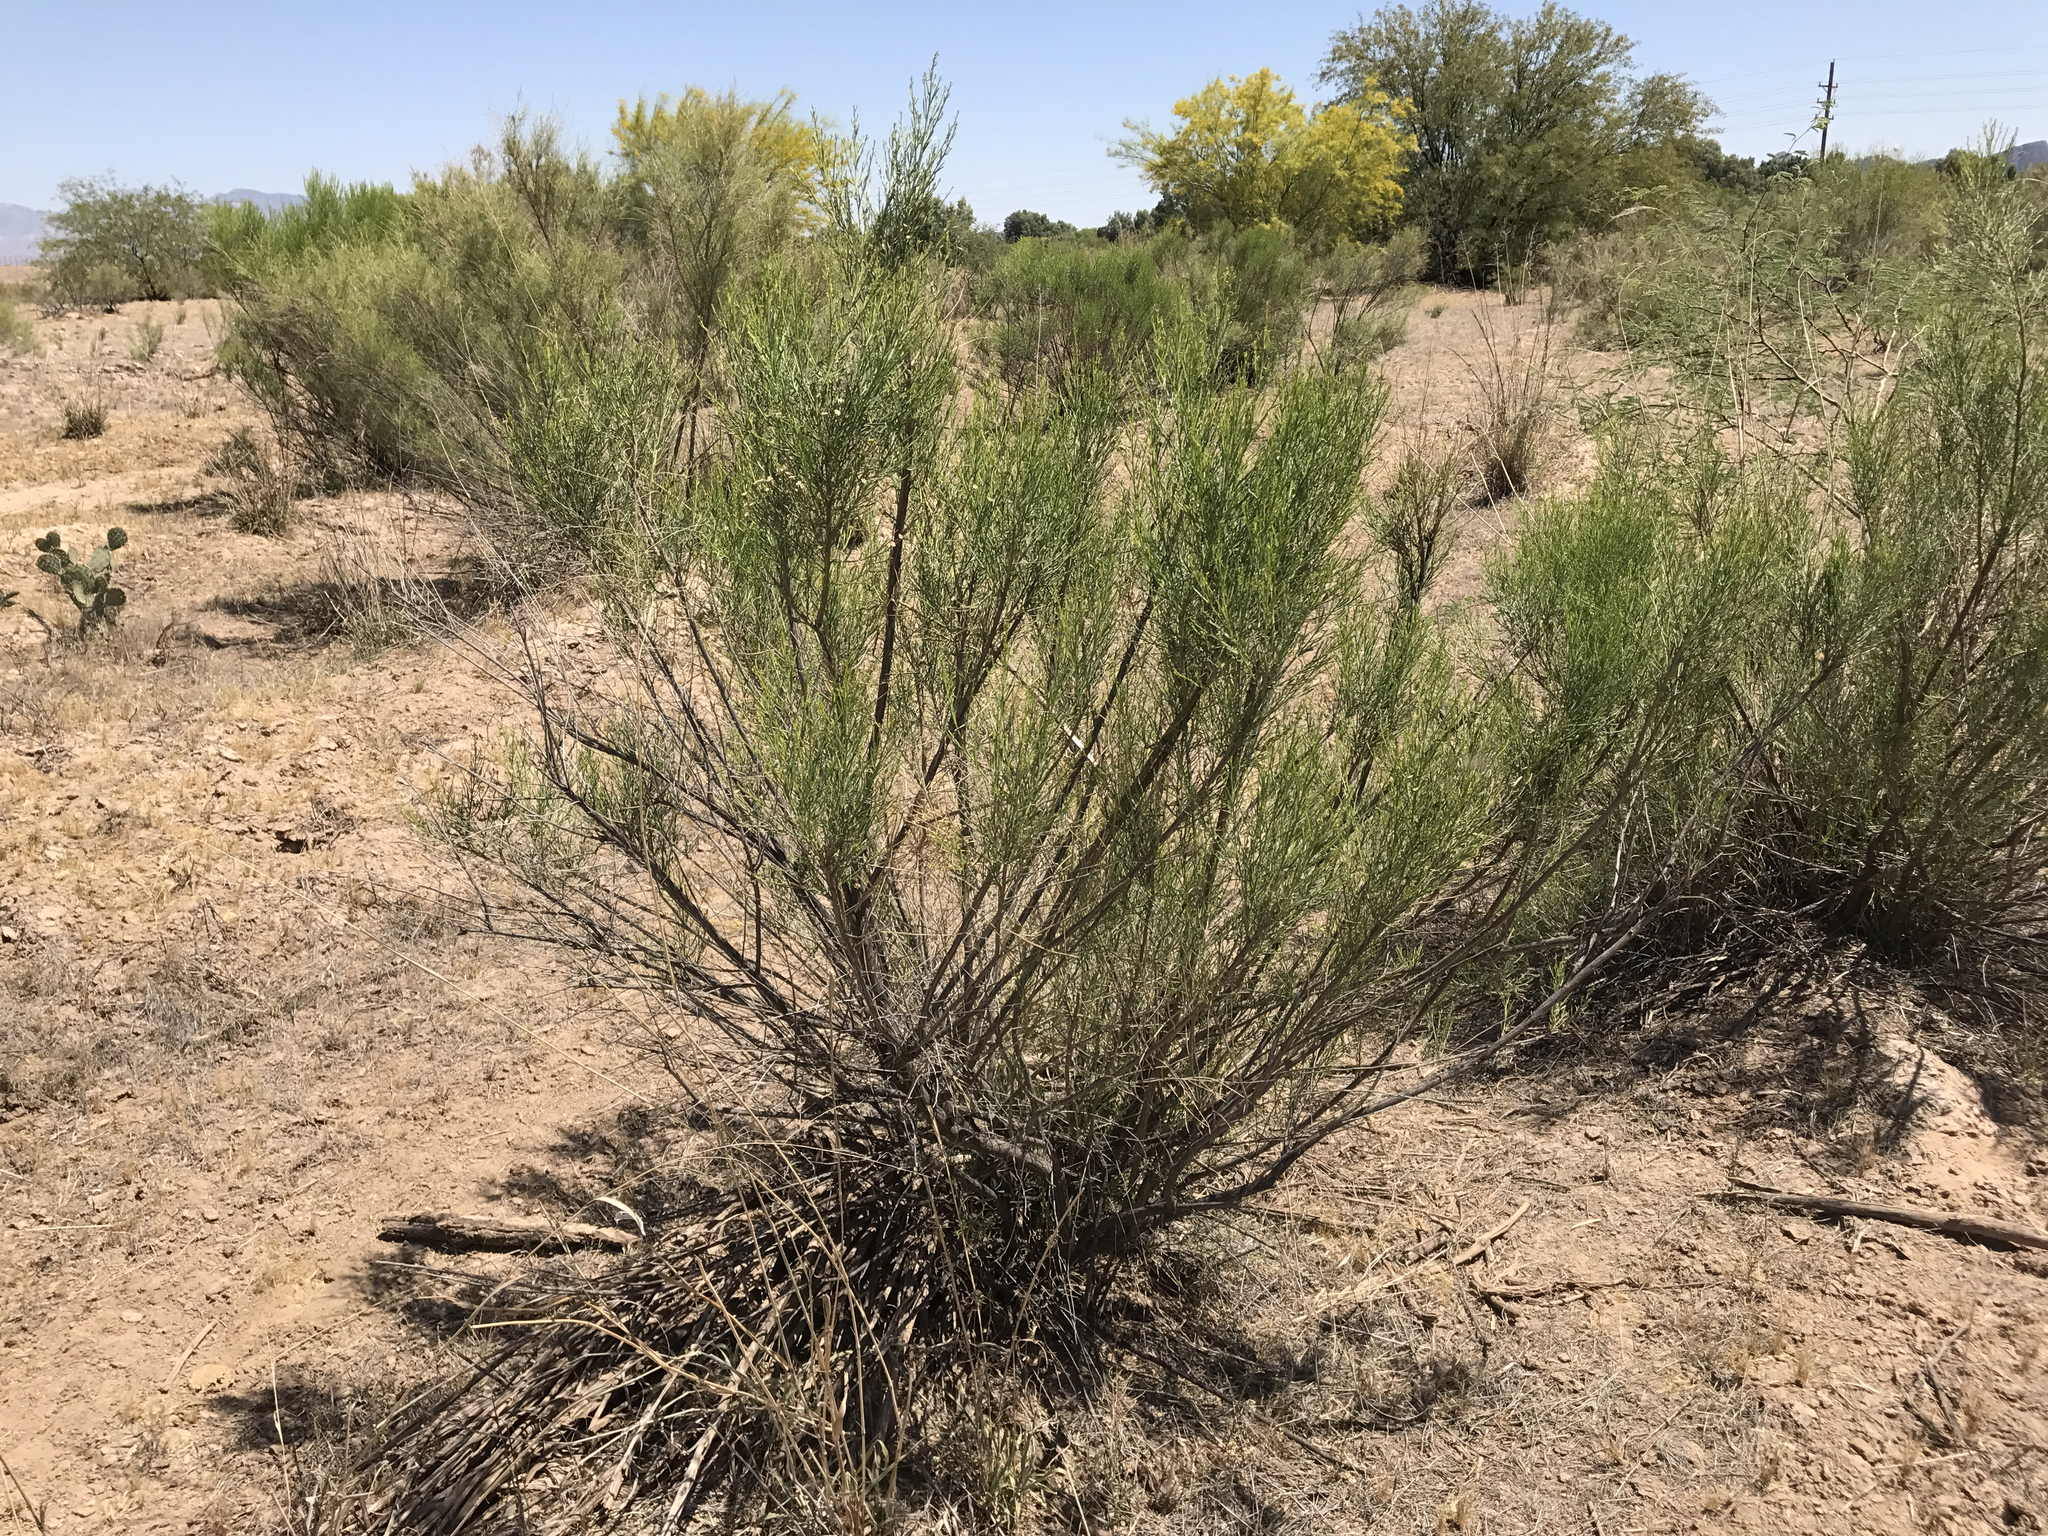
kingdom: Plantae
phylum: Tracheophyta
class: Magnoliopsida
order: Asterales
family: Asteraceae
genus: Baccharis
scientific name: Baccharis sarothroides
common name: Desert-broom
